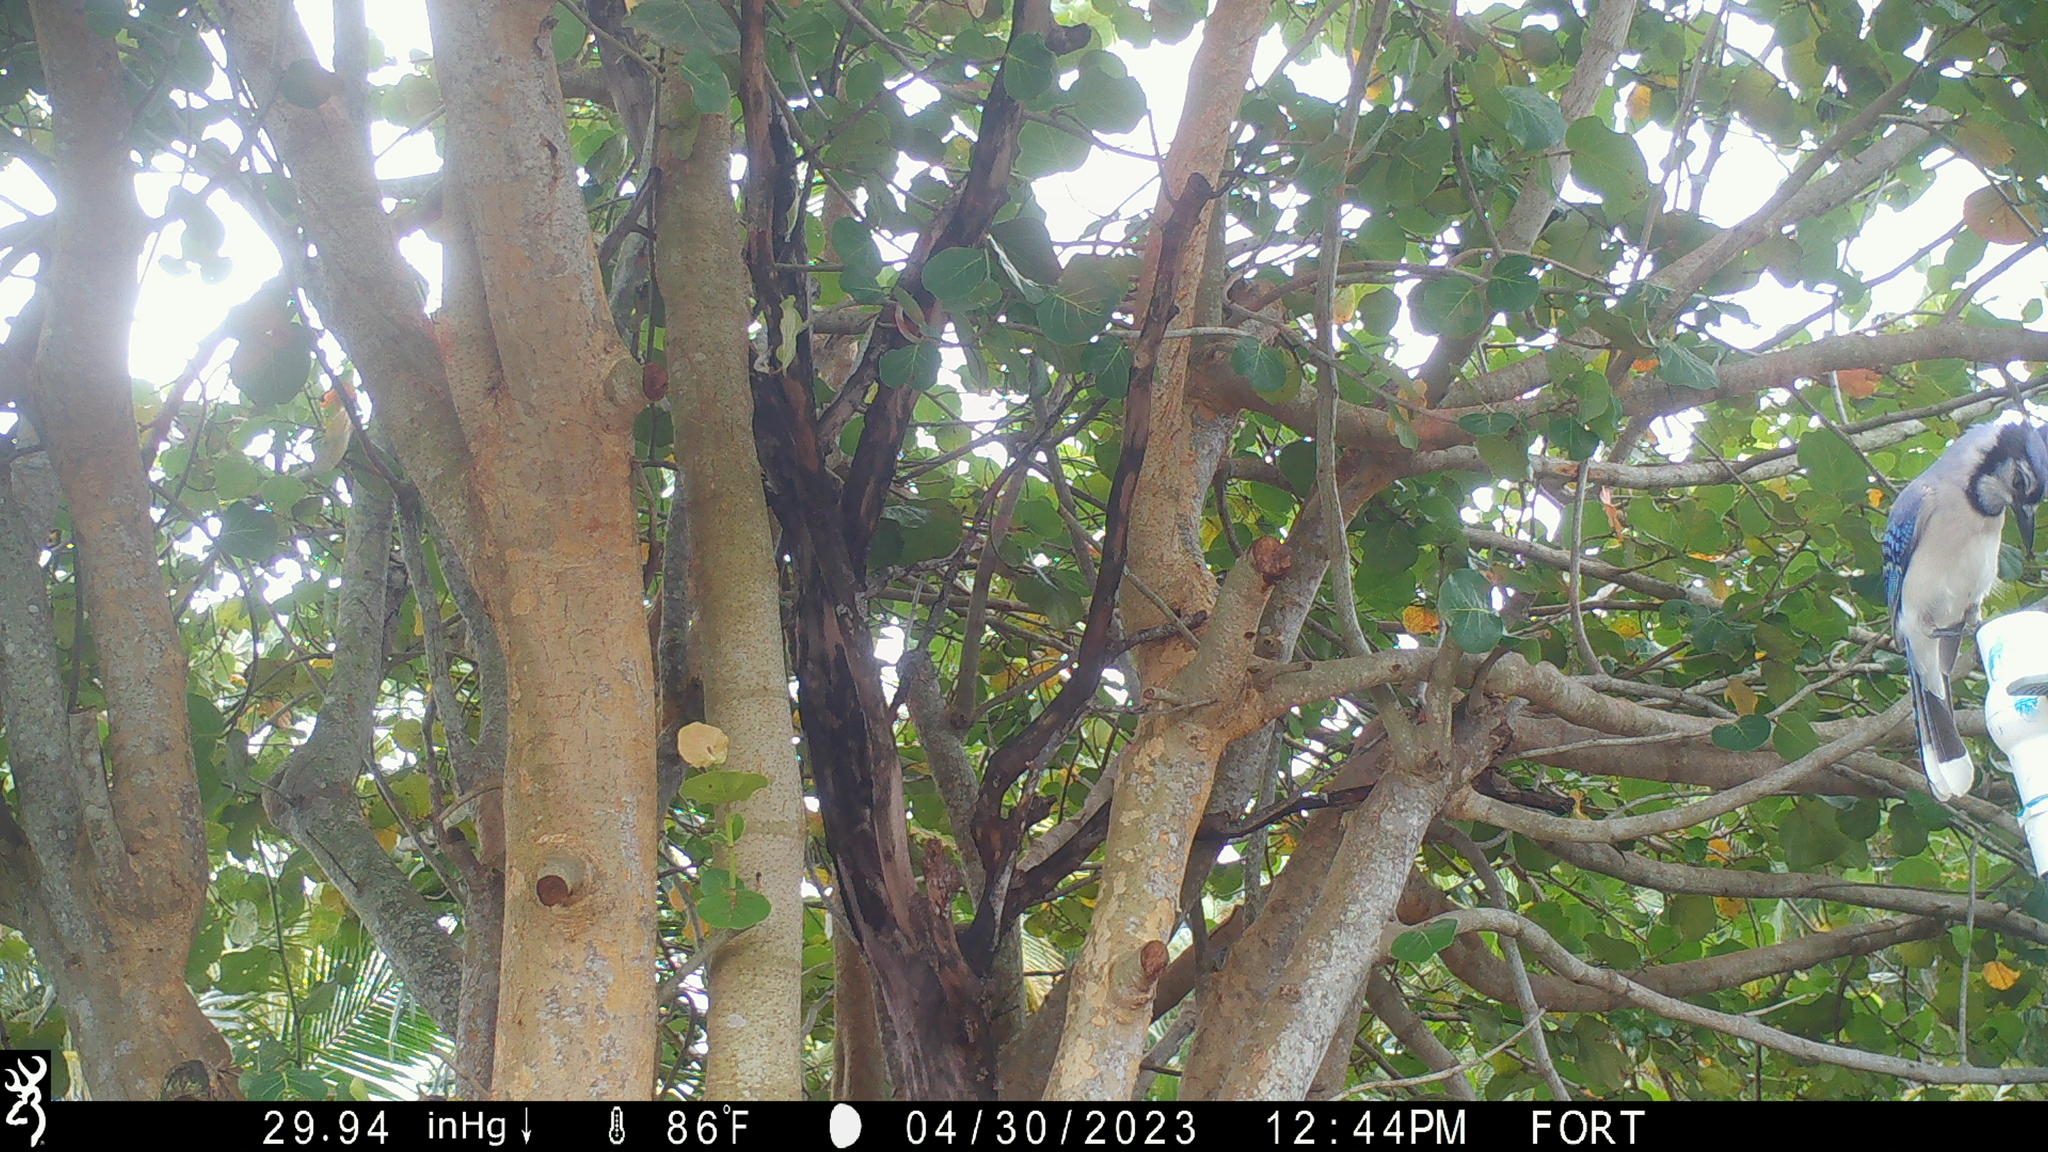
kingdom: Animalia
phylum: Chordata
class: Aves
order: Passeriformes
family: Corvidae
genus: Cyanocitta
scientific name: Cyanocitta cristata
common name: Blue jay
